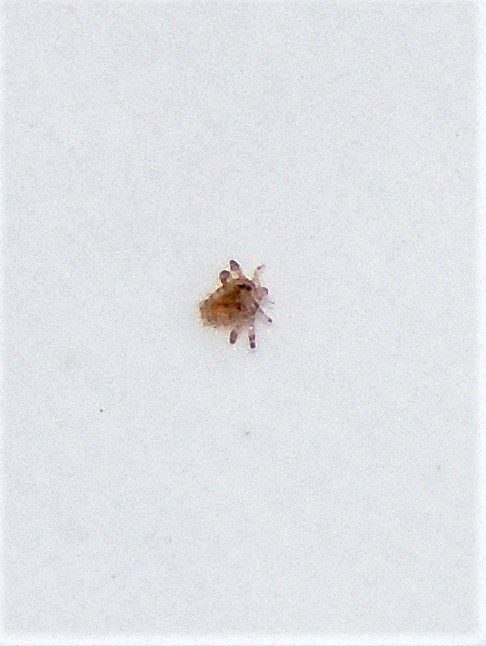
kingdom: Animalia
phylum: Arthropoda
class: Insecta
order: Psocodea
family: Pthiridae
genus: Pthirus
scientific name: Pthirus pubis
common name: Louse
